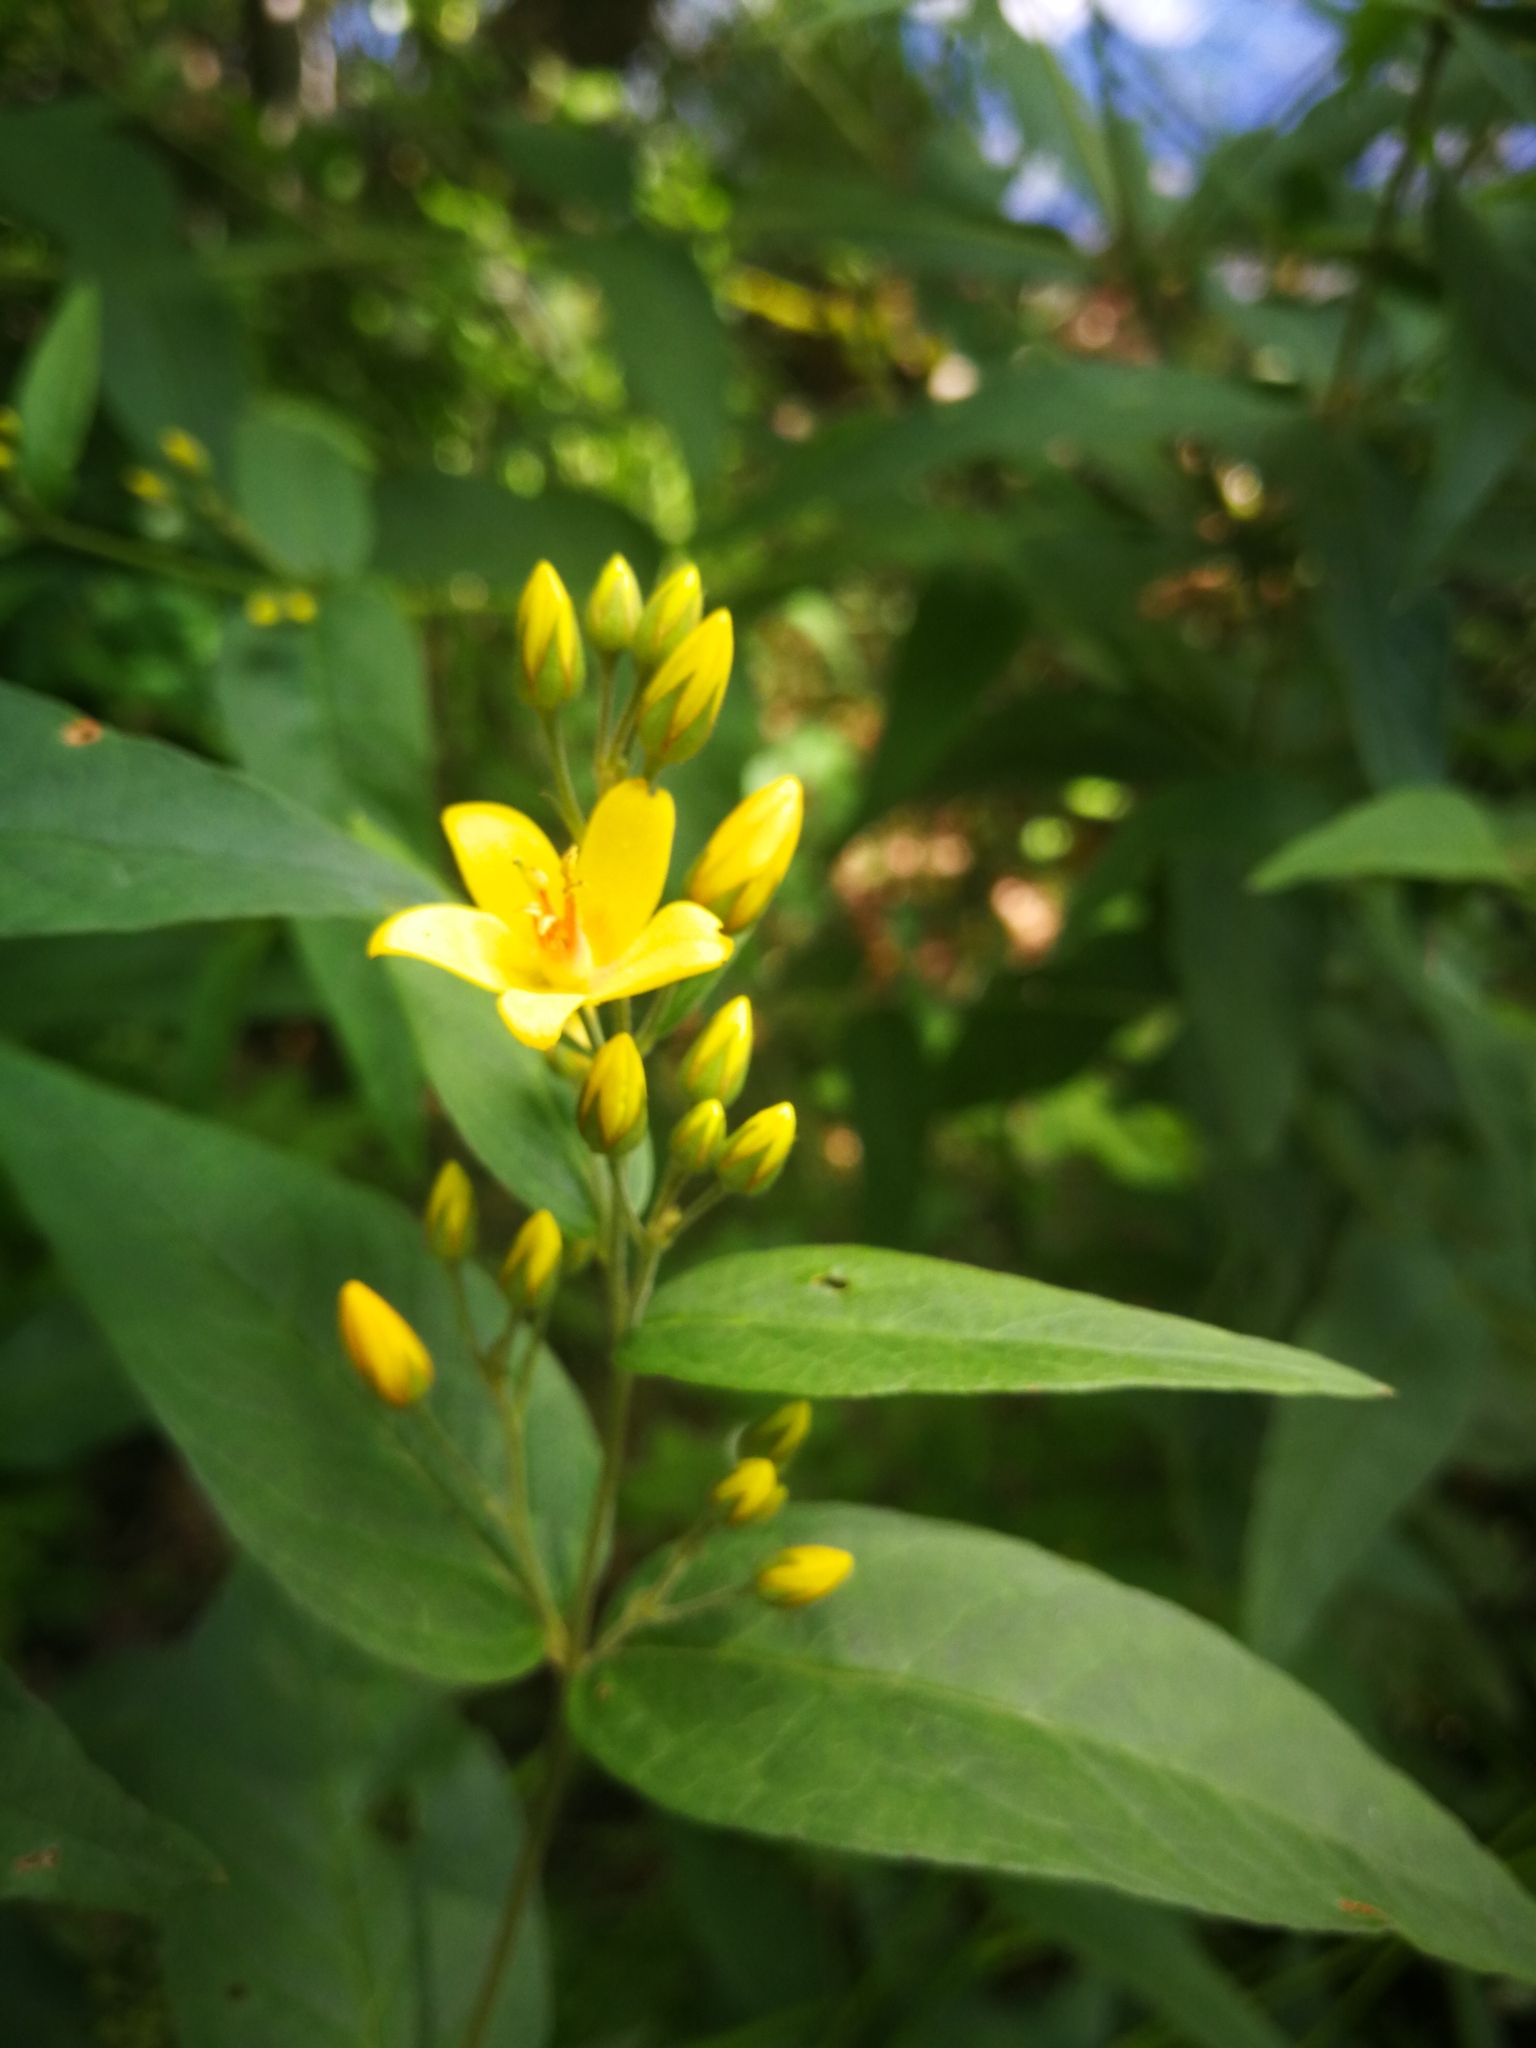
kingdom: Plantae
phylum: Tracheophyta
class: Magnoliopsida
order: Ericales
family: Primulaceae
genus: Lysimachia
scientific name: Lysimachia vulgaris
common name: Yellow loosestrife
